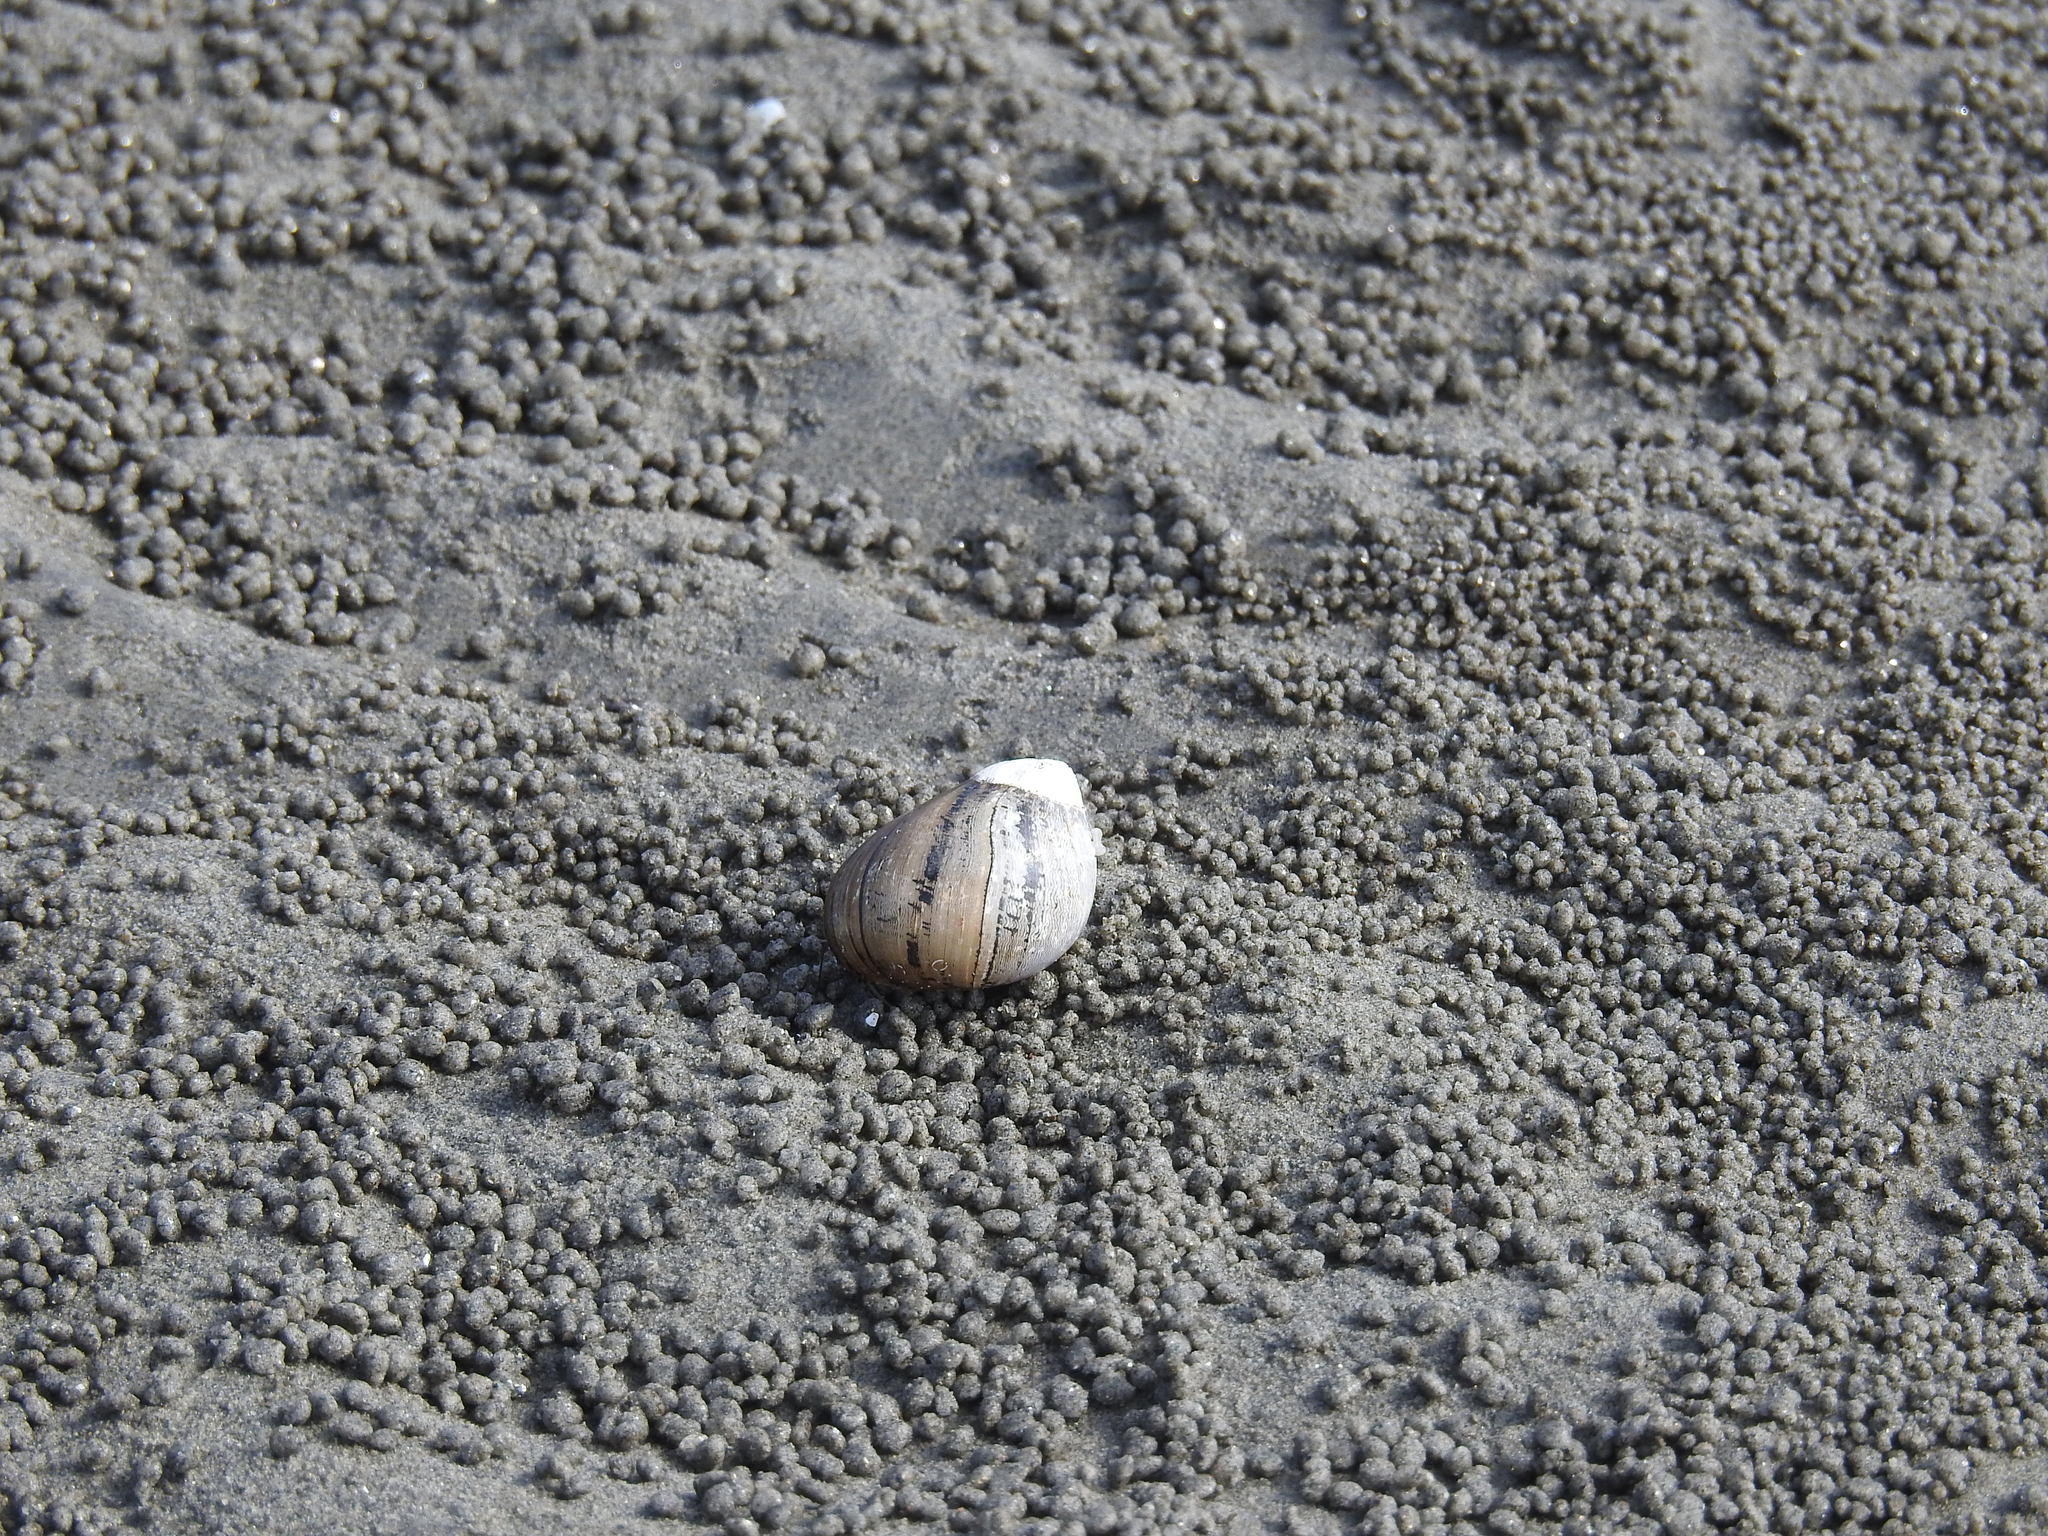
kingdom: Animalia
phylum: Arthropoda
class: Malacostraca
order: Decapoda
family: Diogenidae
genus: Clibanarius
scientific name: Clibanarius eurysternus
